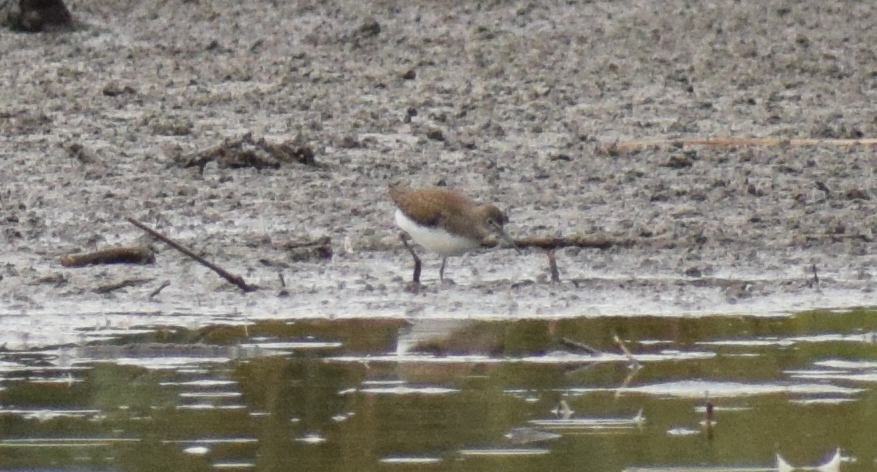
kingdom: Animalia
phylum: Chordata
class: Aves
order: Charadriiformes
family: Scolopacidae
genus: Tringa
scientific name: Tringa ochropus
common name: Green sandpiper
